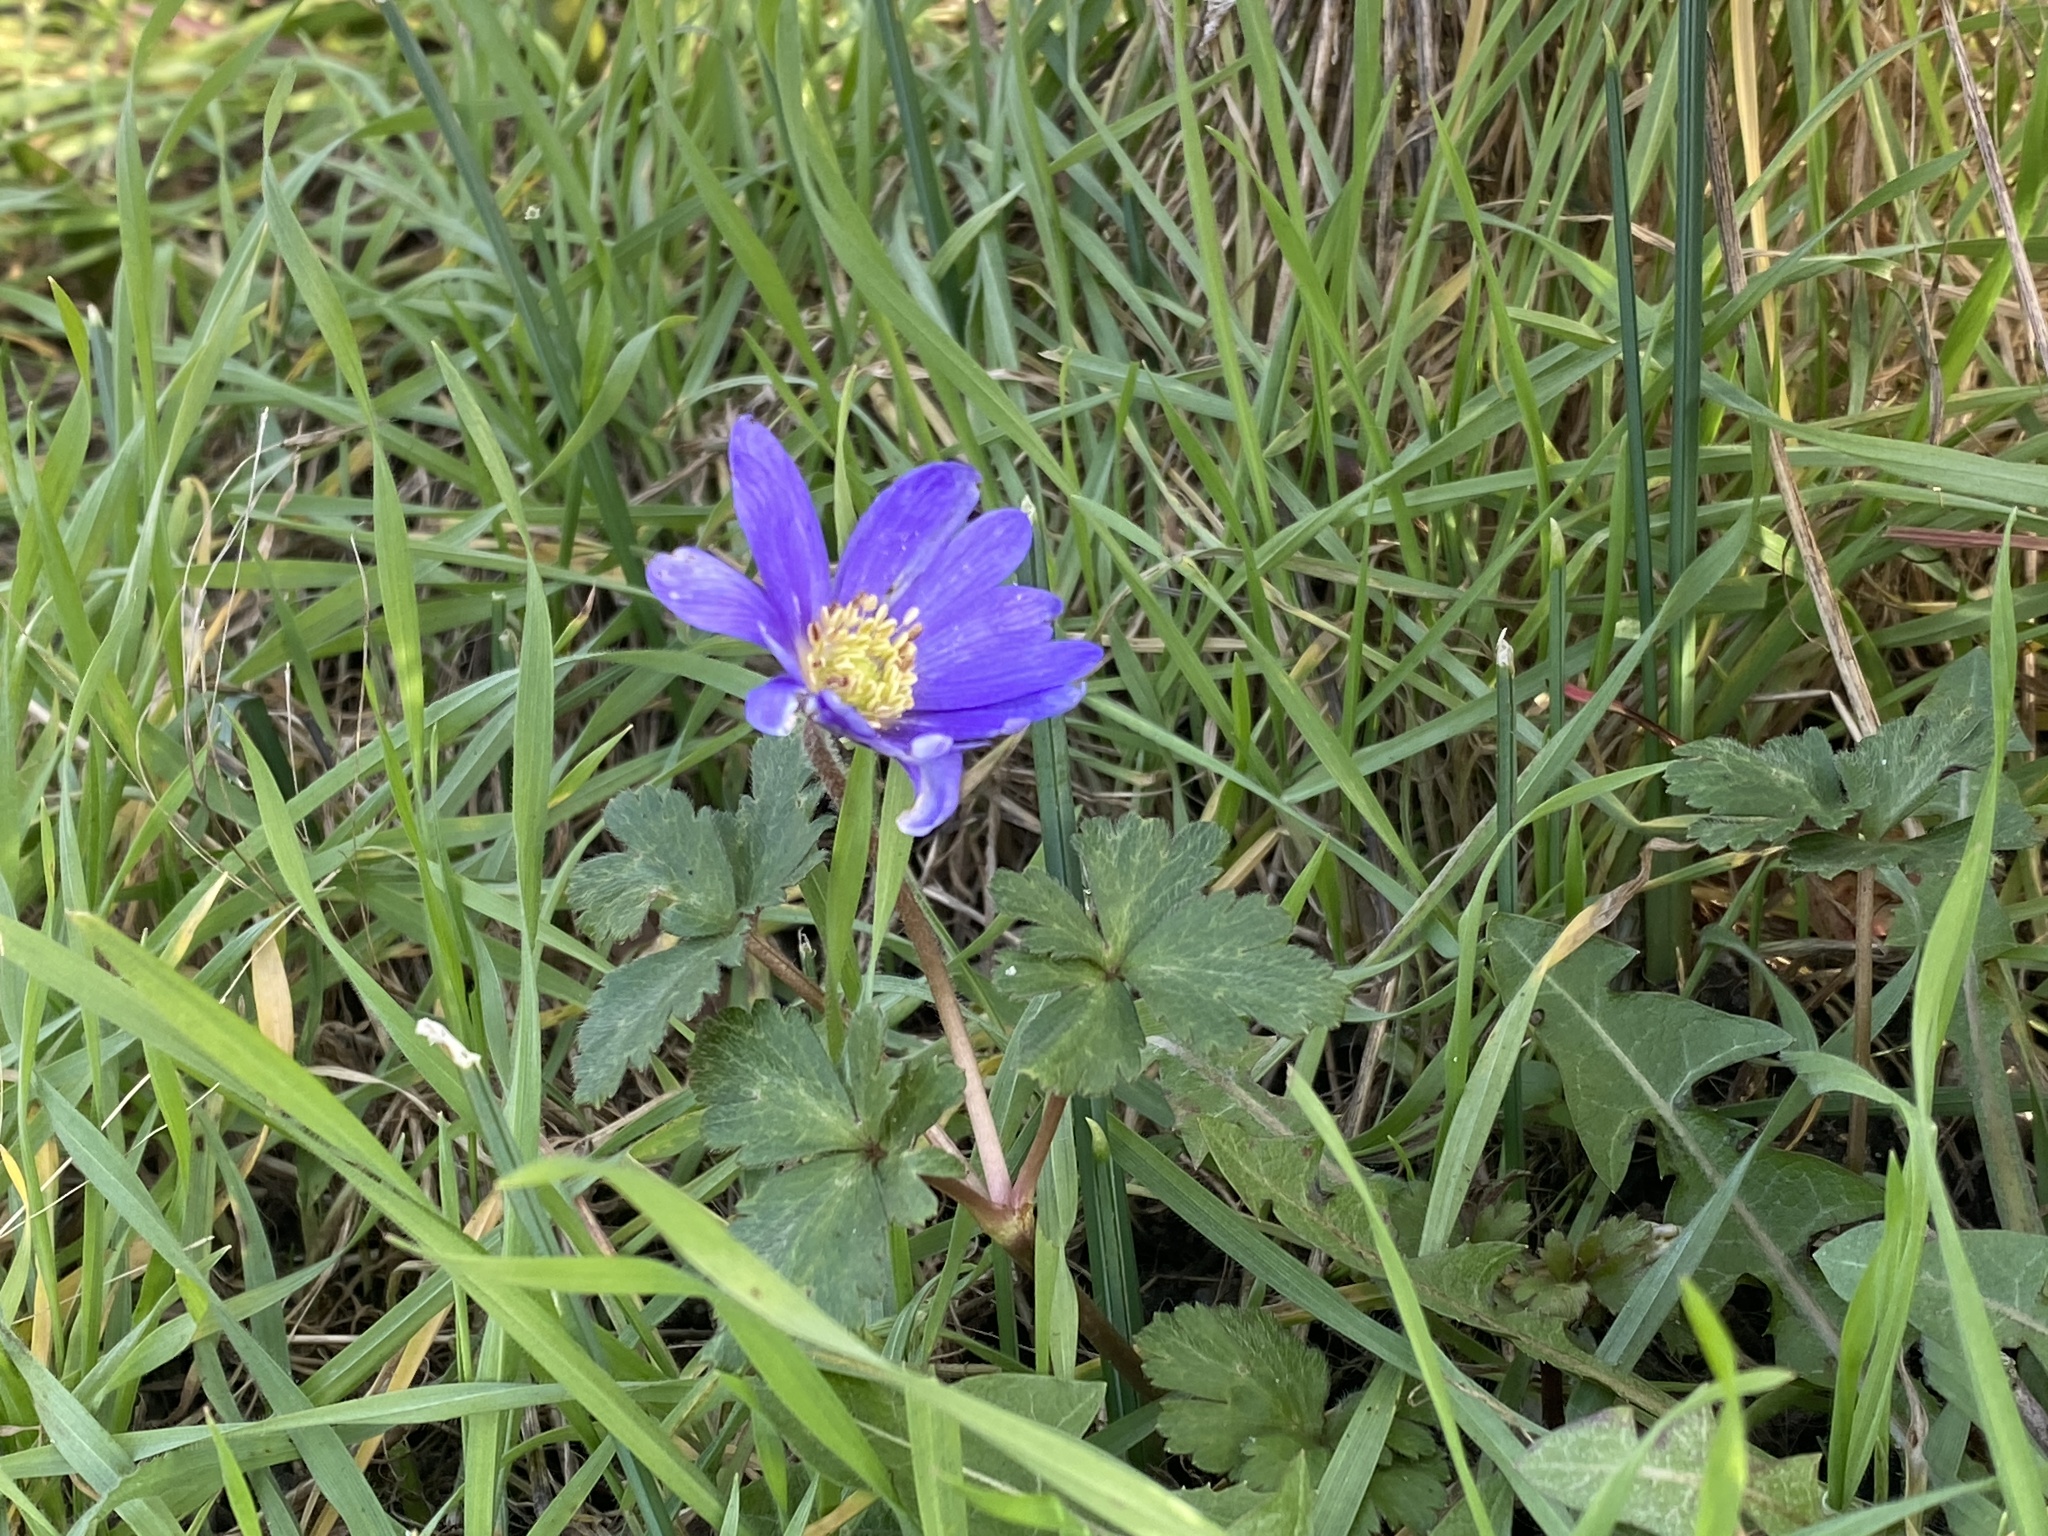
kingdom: Plantae
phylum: Tracheophyta
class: Magnoliopsida
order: Ranunculales
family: Ranunculaceae
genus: Anemone
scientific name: Anemone blanda
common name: Balkan anemone
